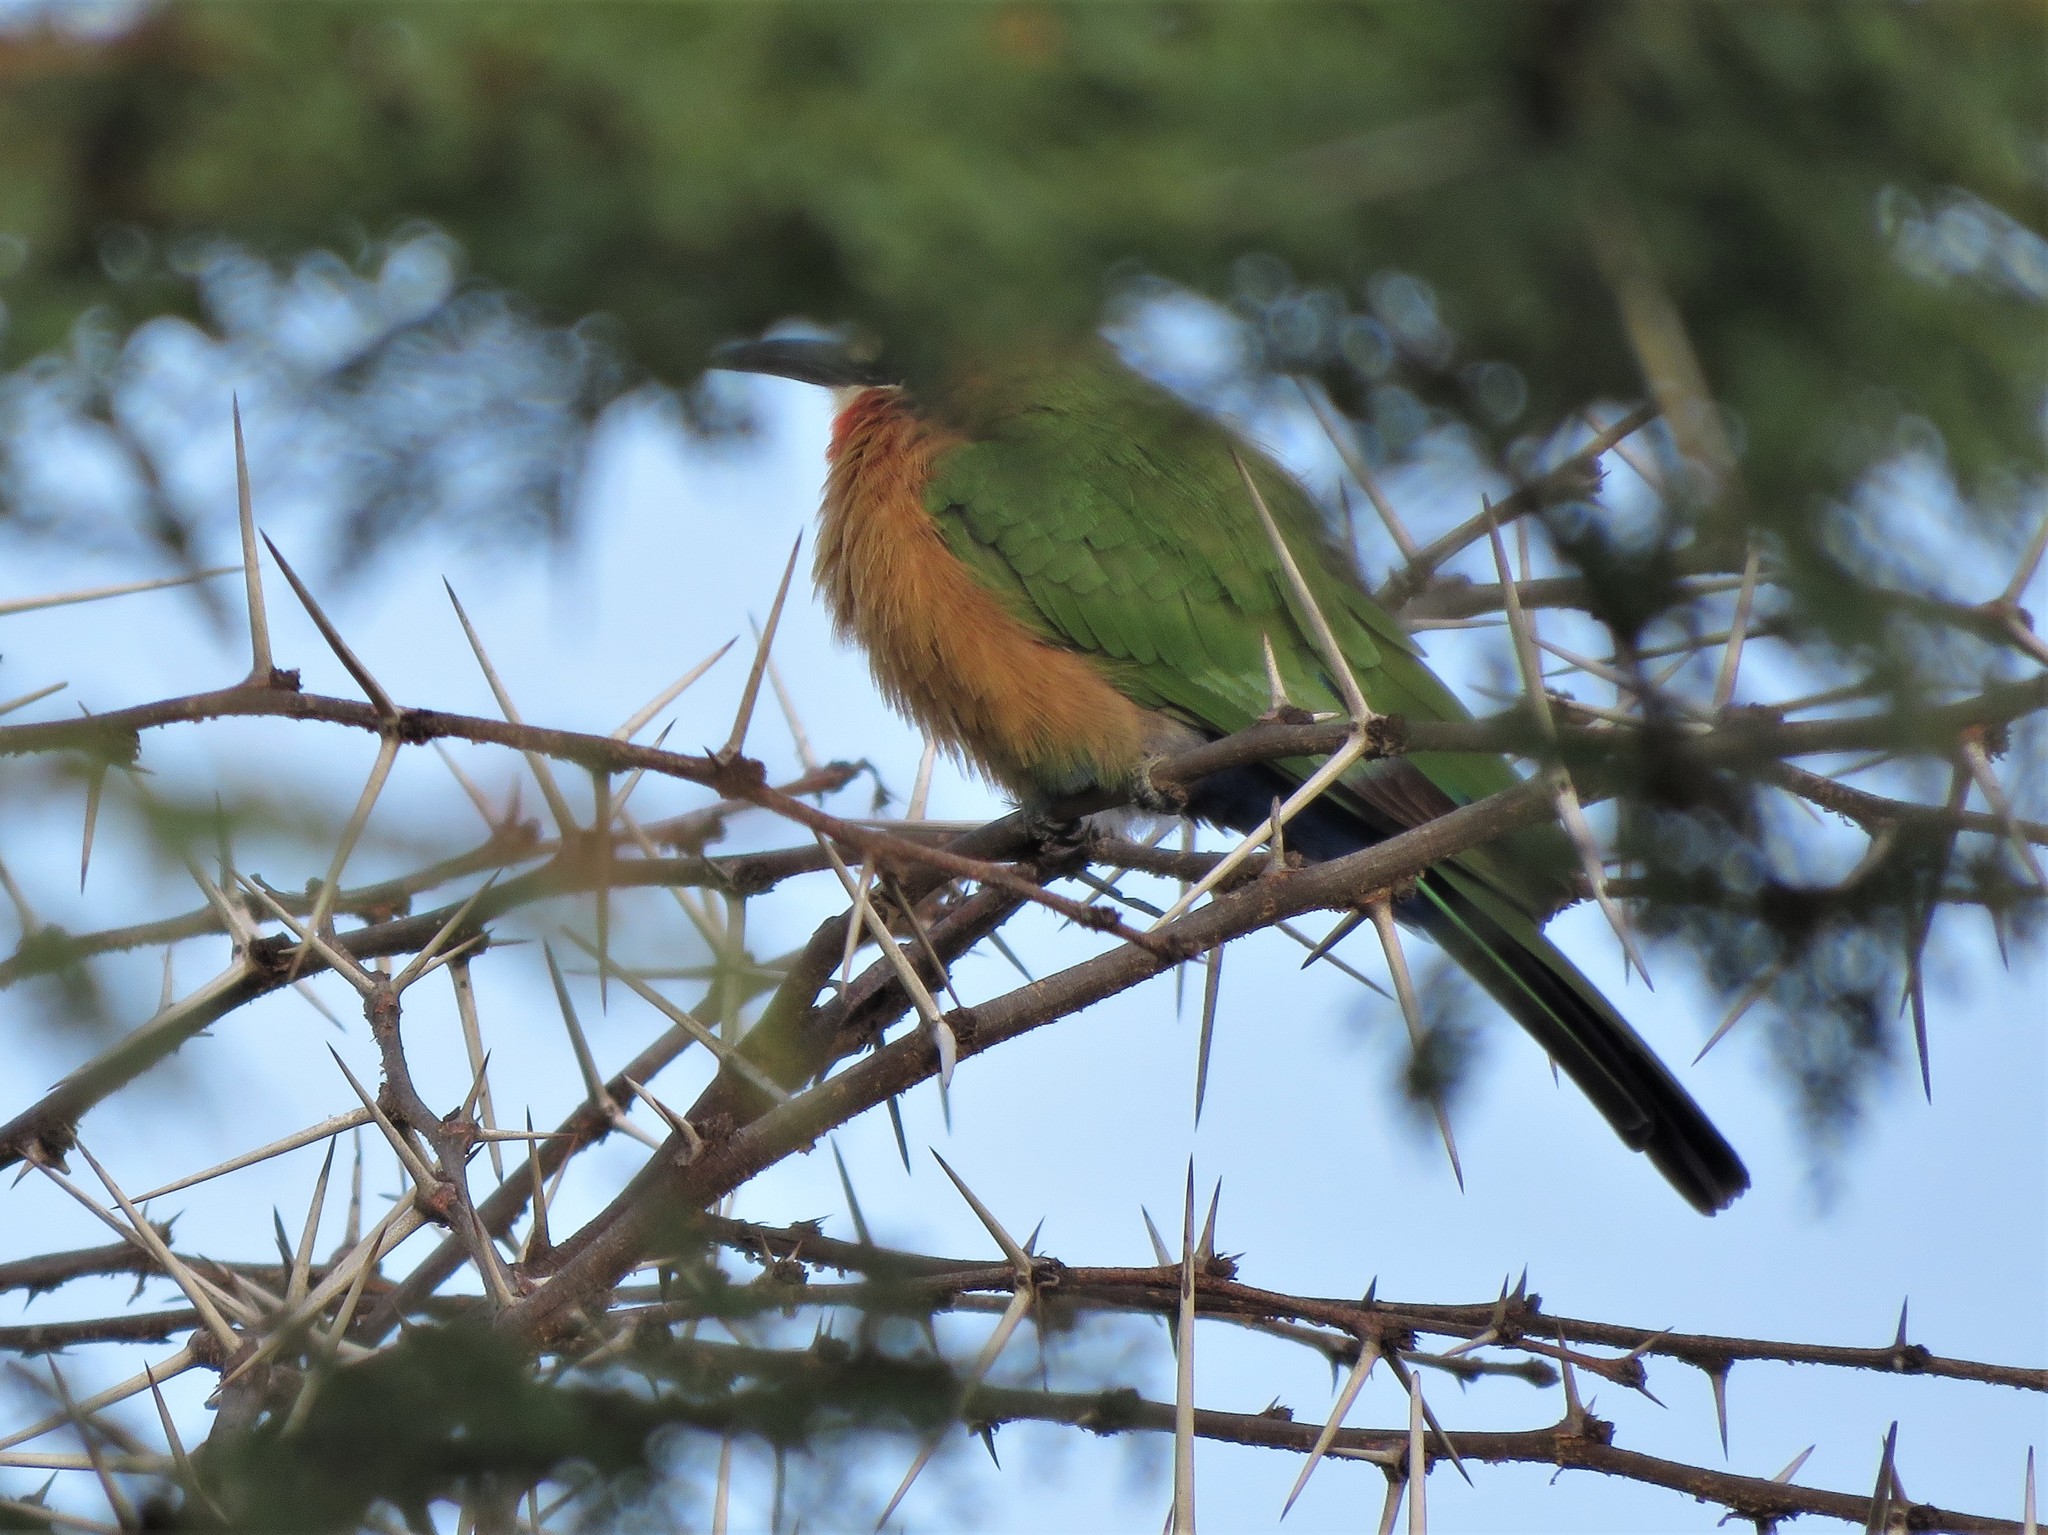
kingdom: Animalia
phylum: Chordata
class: Aves
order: Coraciiformes
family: Meropidae
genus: Merops
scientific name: Merops bullockoides
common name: White-fronted bee-eater
